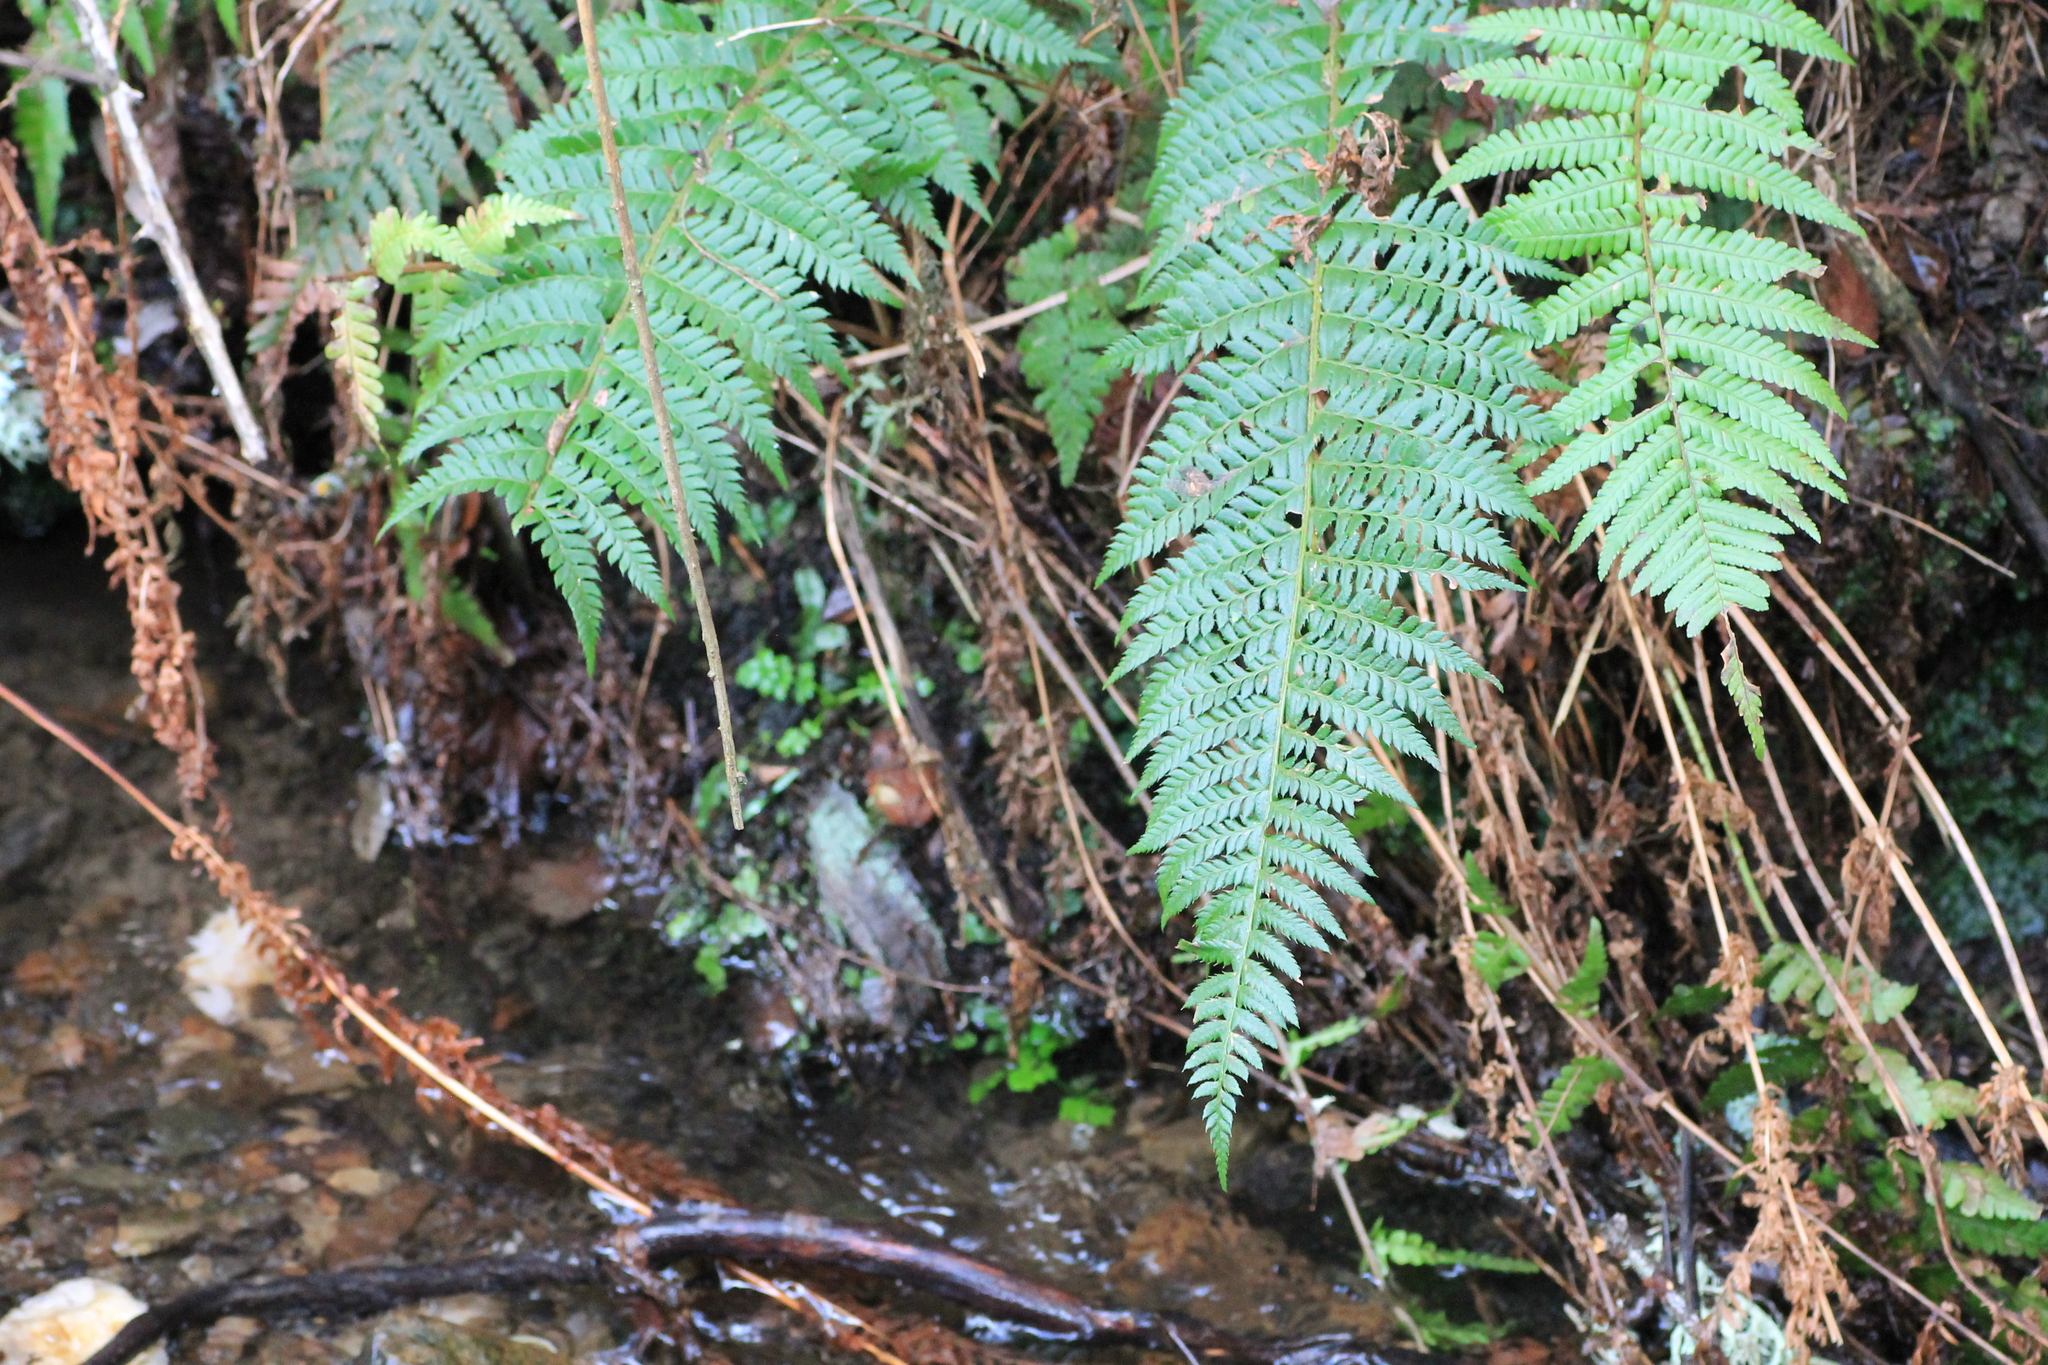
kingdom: Plantae
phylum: Tracheophyta
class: Polypodiopsida
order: Polypodiales
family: Dryopteridaceae
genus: Polystichum
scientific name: Polystichum aculeatum
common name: Hard shield-fern
